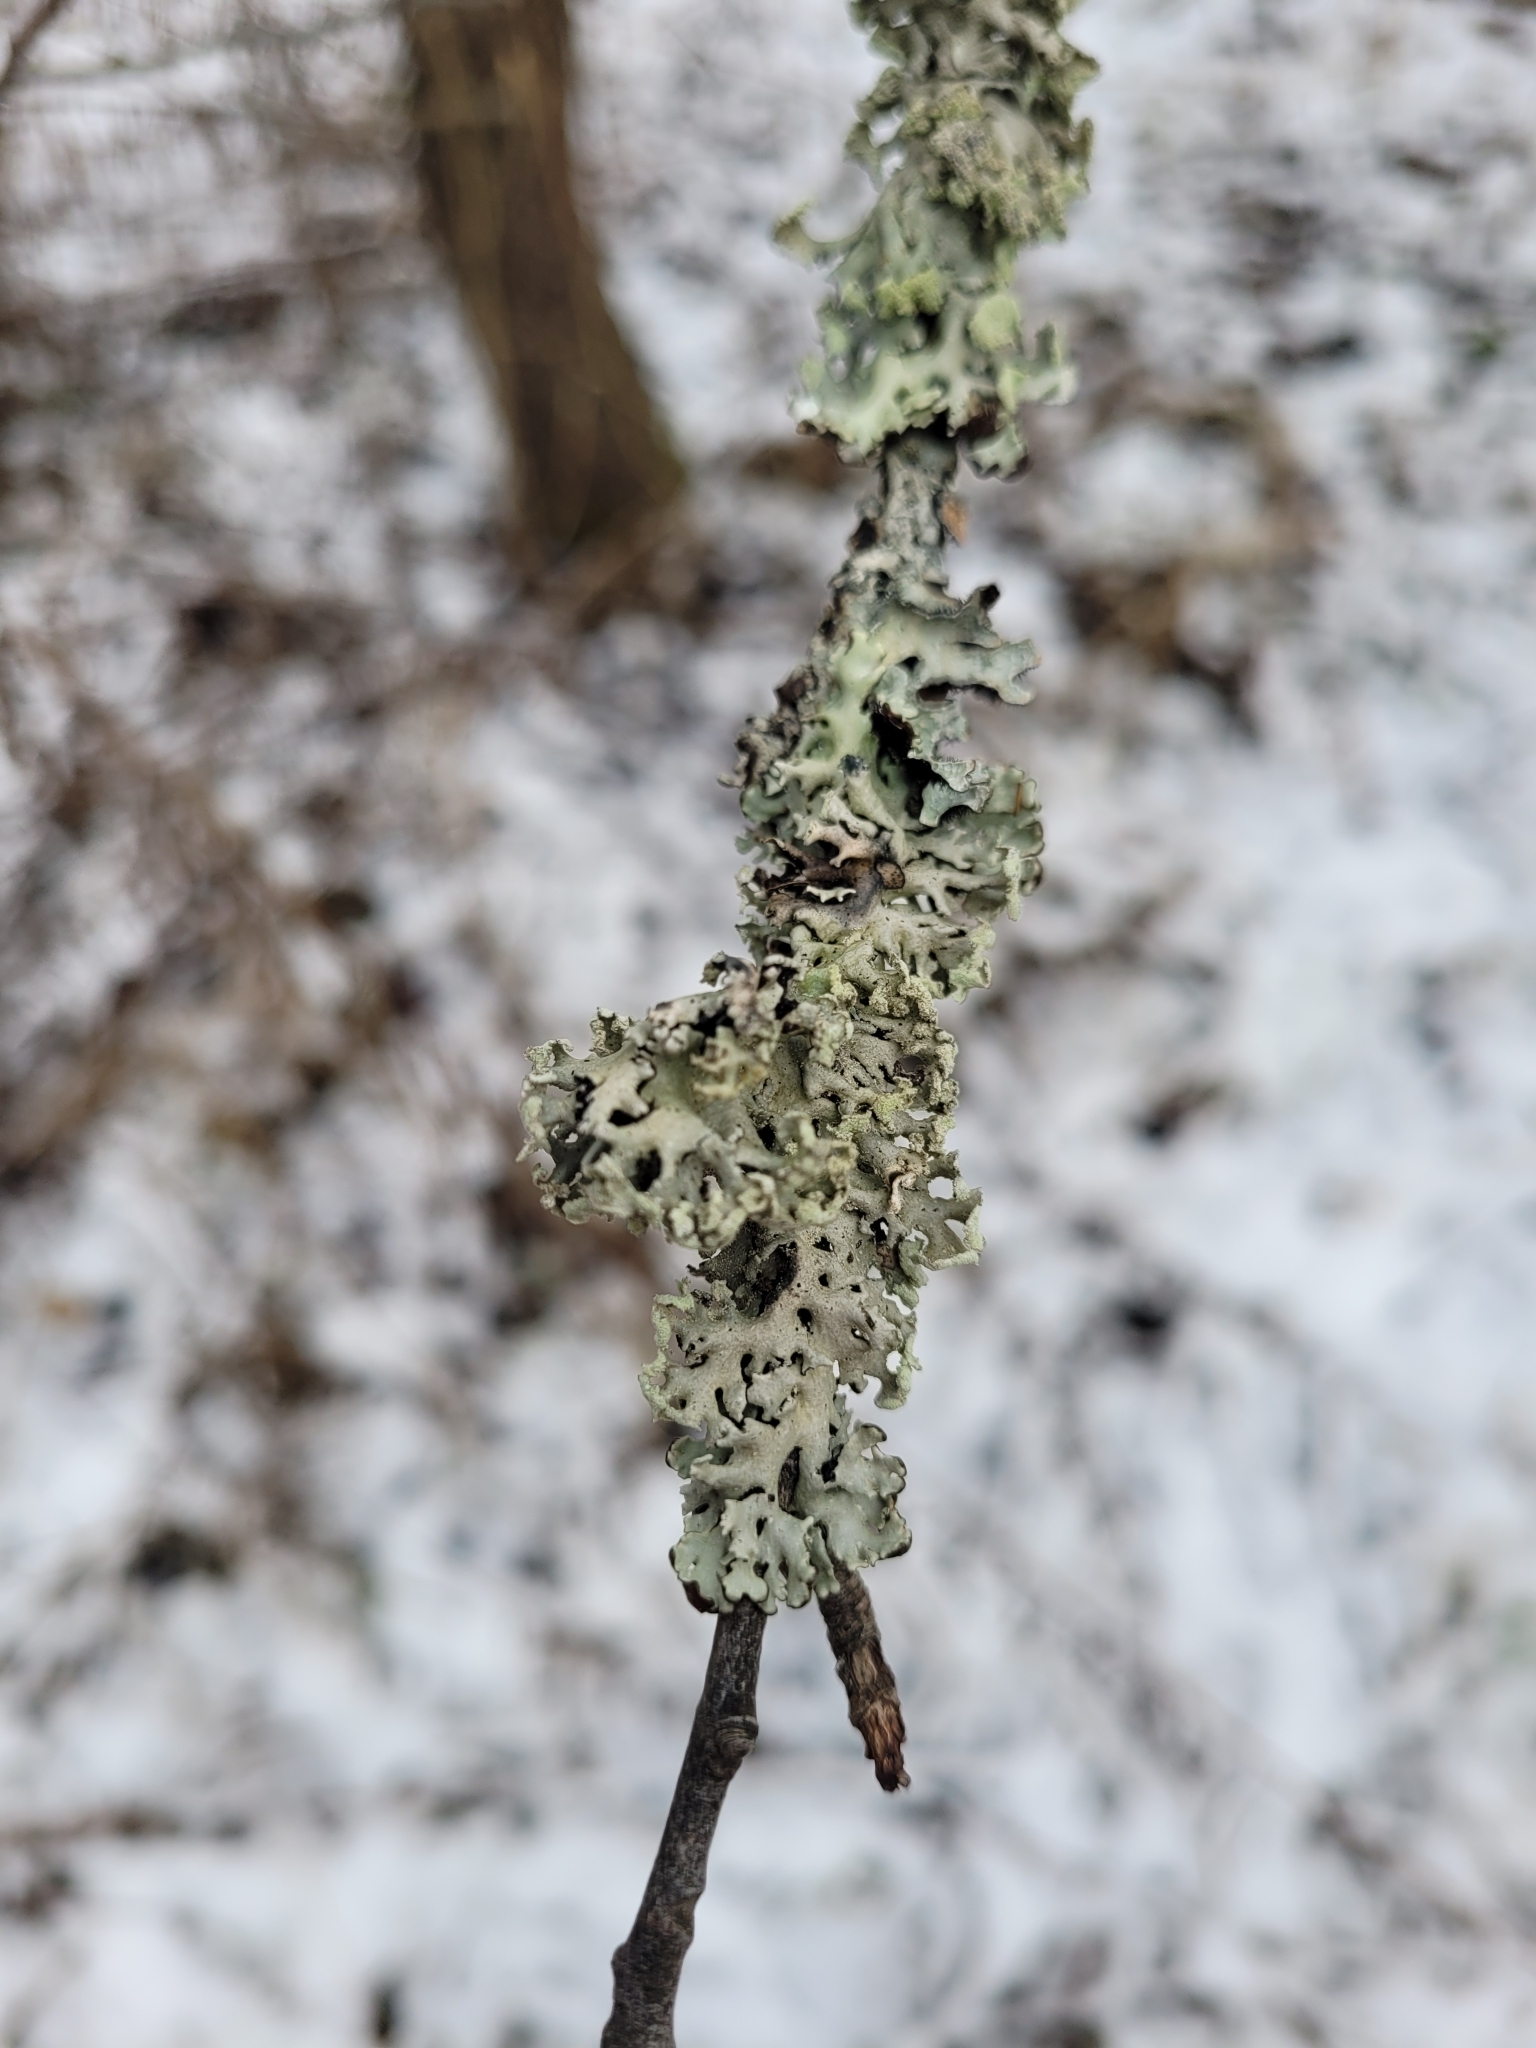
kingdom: Fungi
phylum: Ascomycota
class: Lecanoromycetes
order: Lecanorales
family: Parmeliaceae
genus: Hypogymnia
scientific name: Hypogymnia physodes
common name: Dark crottle
